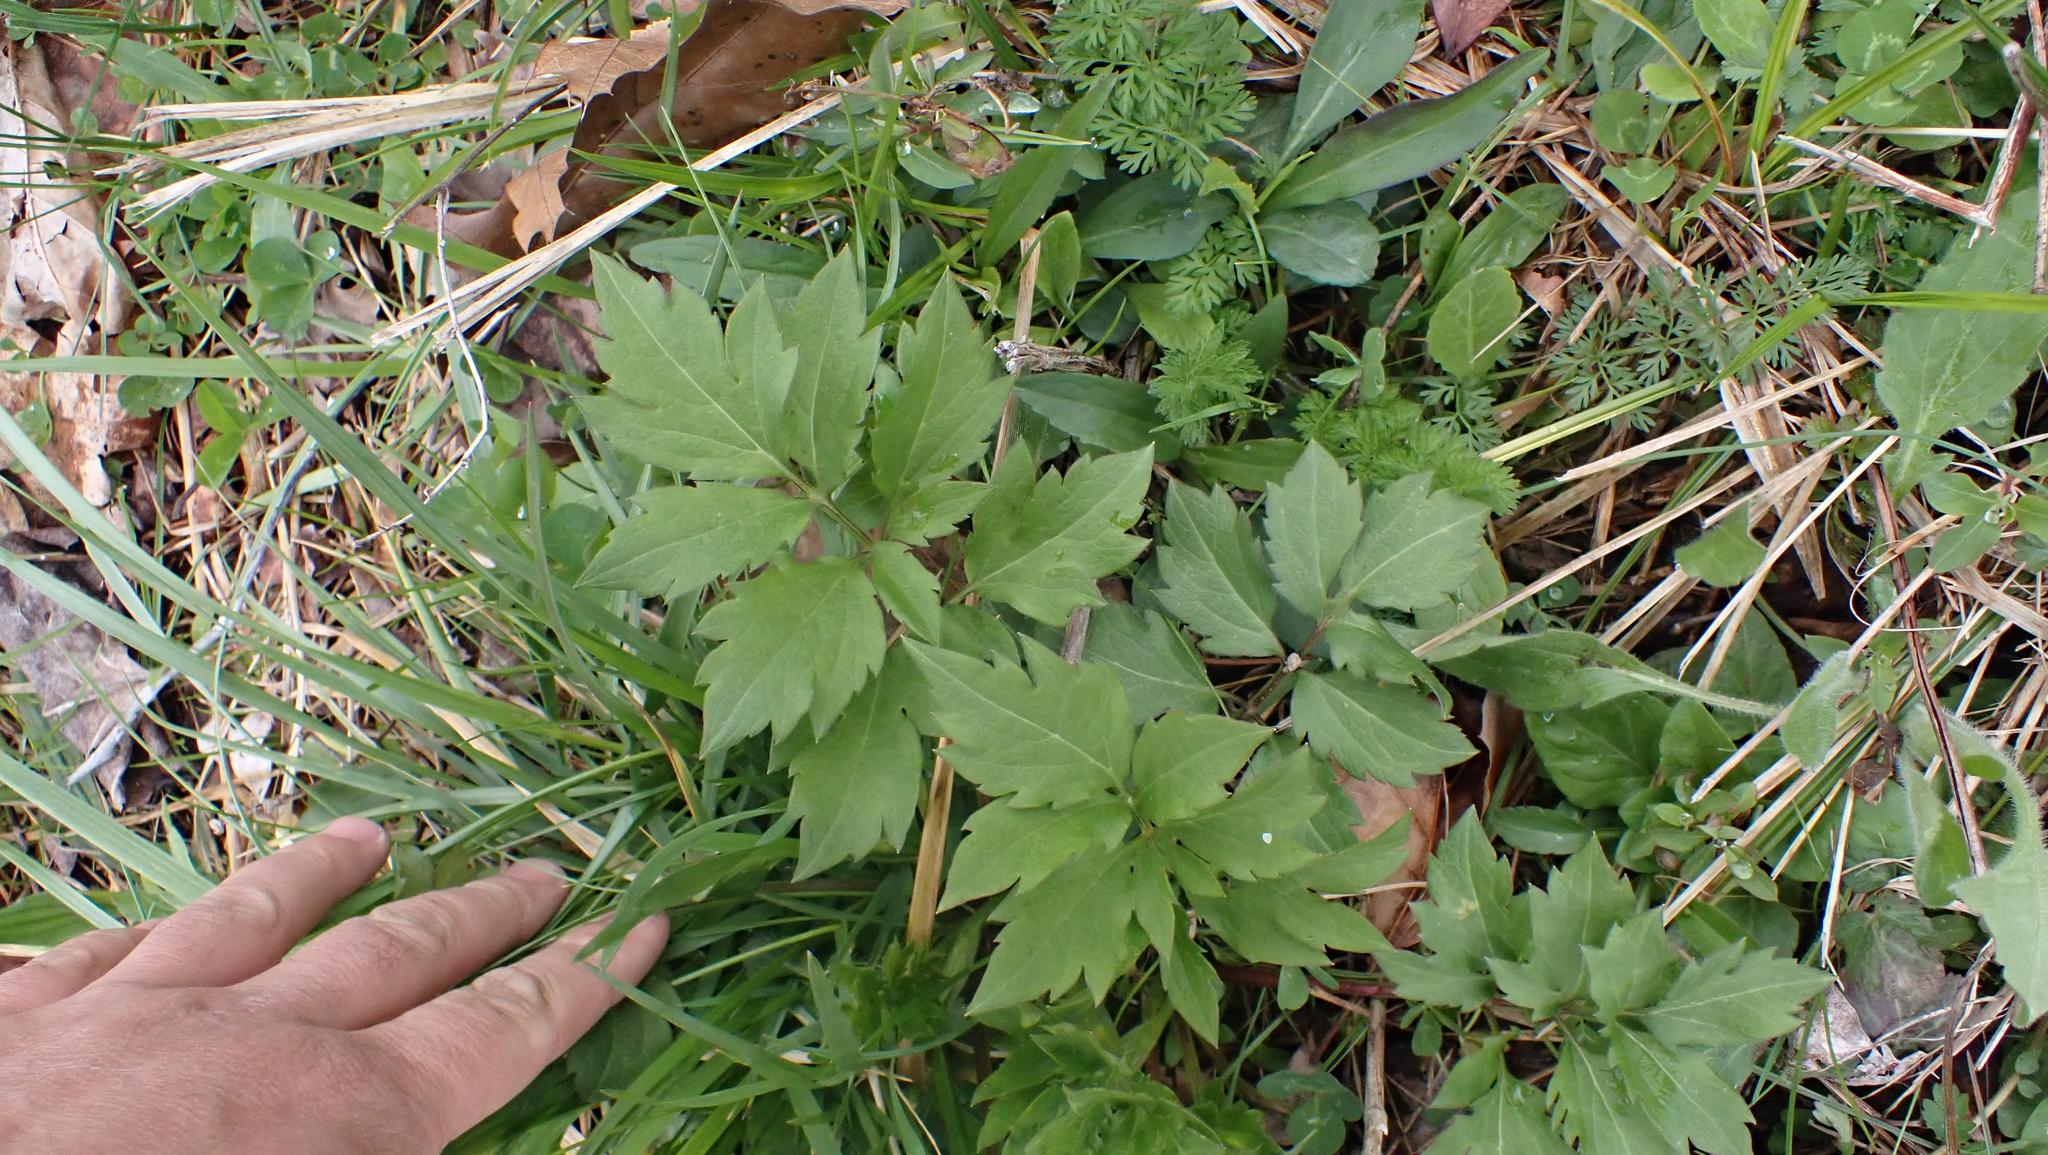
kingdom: Plantae
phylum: Tracheophyta
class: Magnoliopsida
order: Asterales
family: Asteraceae
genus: Rudbeckia
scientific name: Rudbeckia laciniata
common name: Coneflower
